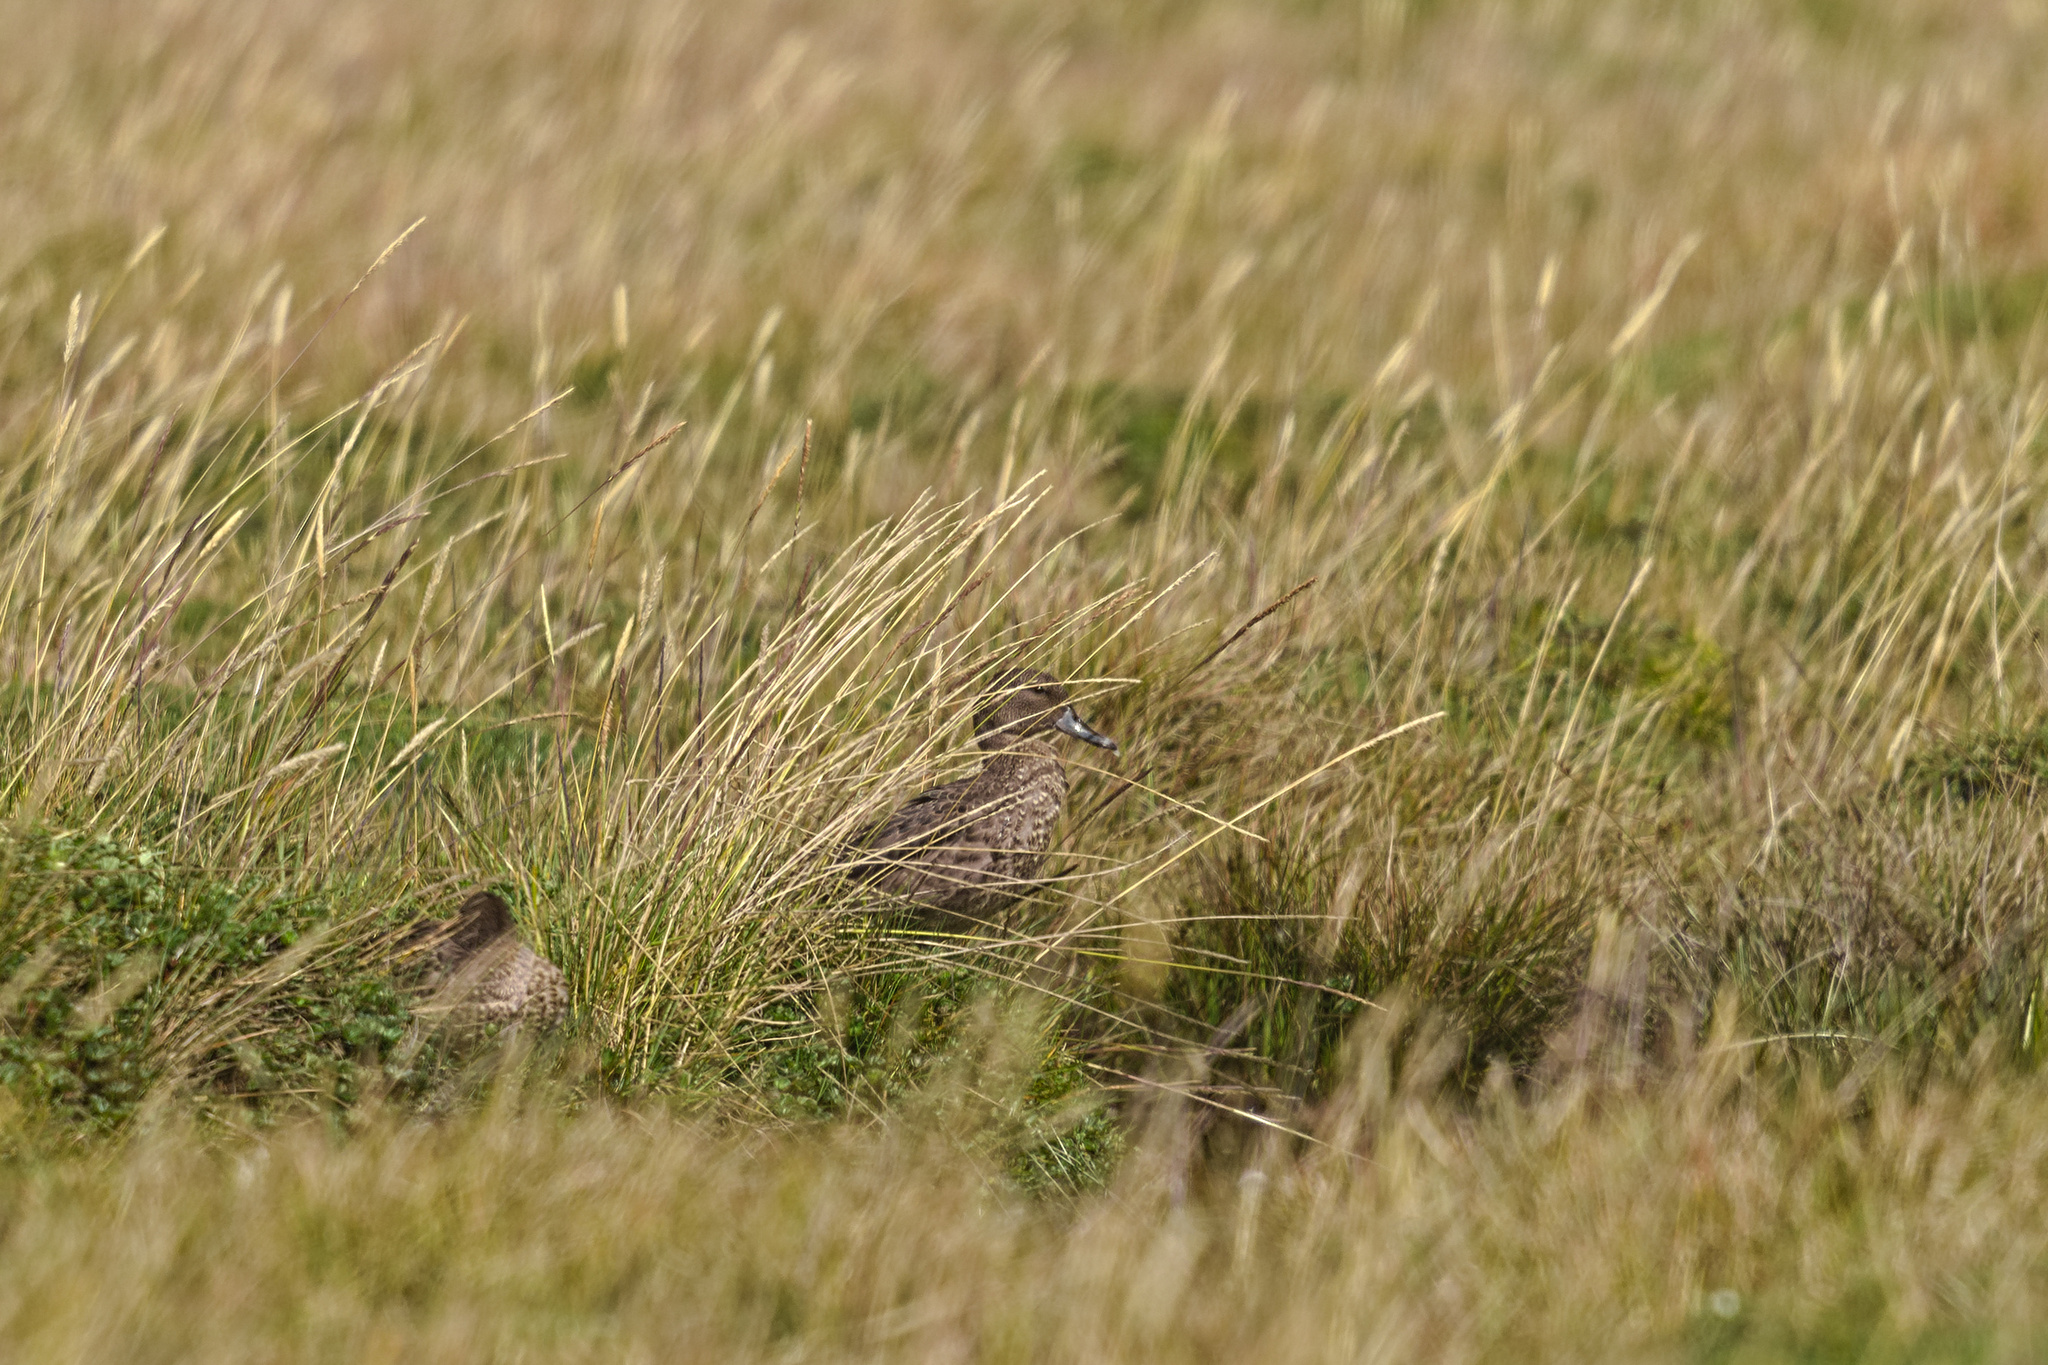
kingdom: Animalia
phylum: Chordata
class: Aves
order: Anseriformes
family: Anatidae
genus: Anas
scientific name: Anas andium
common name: Andean teal
